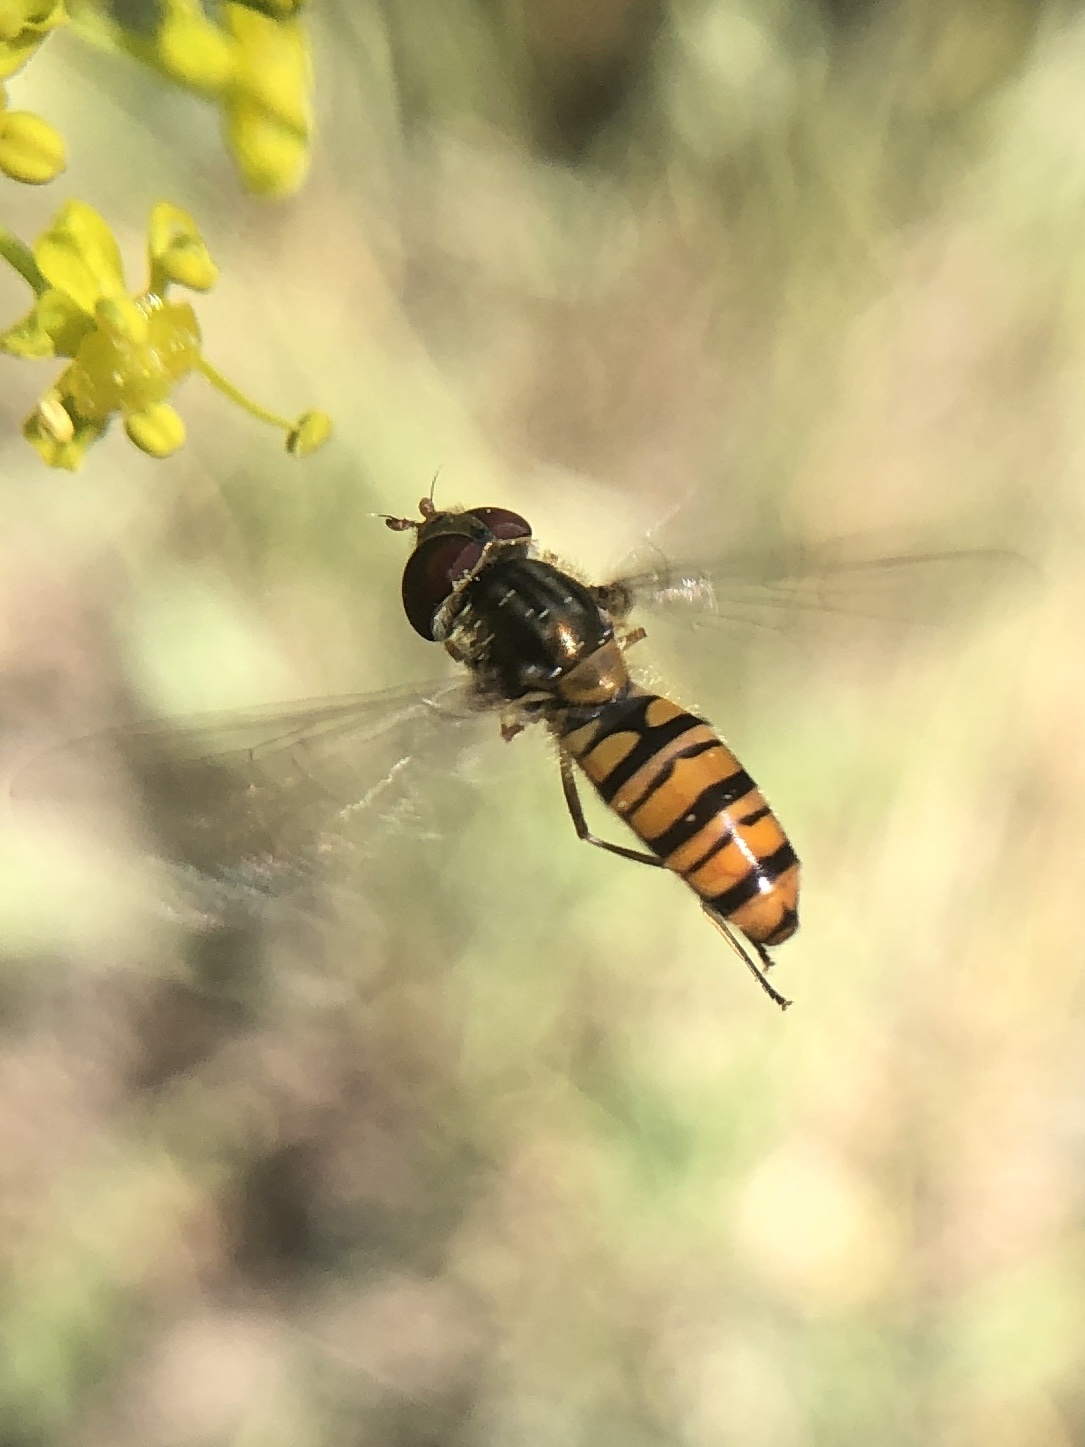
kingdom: Animalia
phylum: Arthropoda
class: Insecta
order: Diptera
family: Syrphidae
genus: Episyrphus
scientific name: Episyrphus balteatus
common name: Marmalade hoverfly
